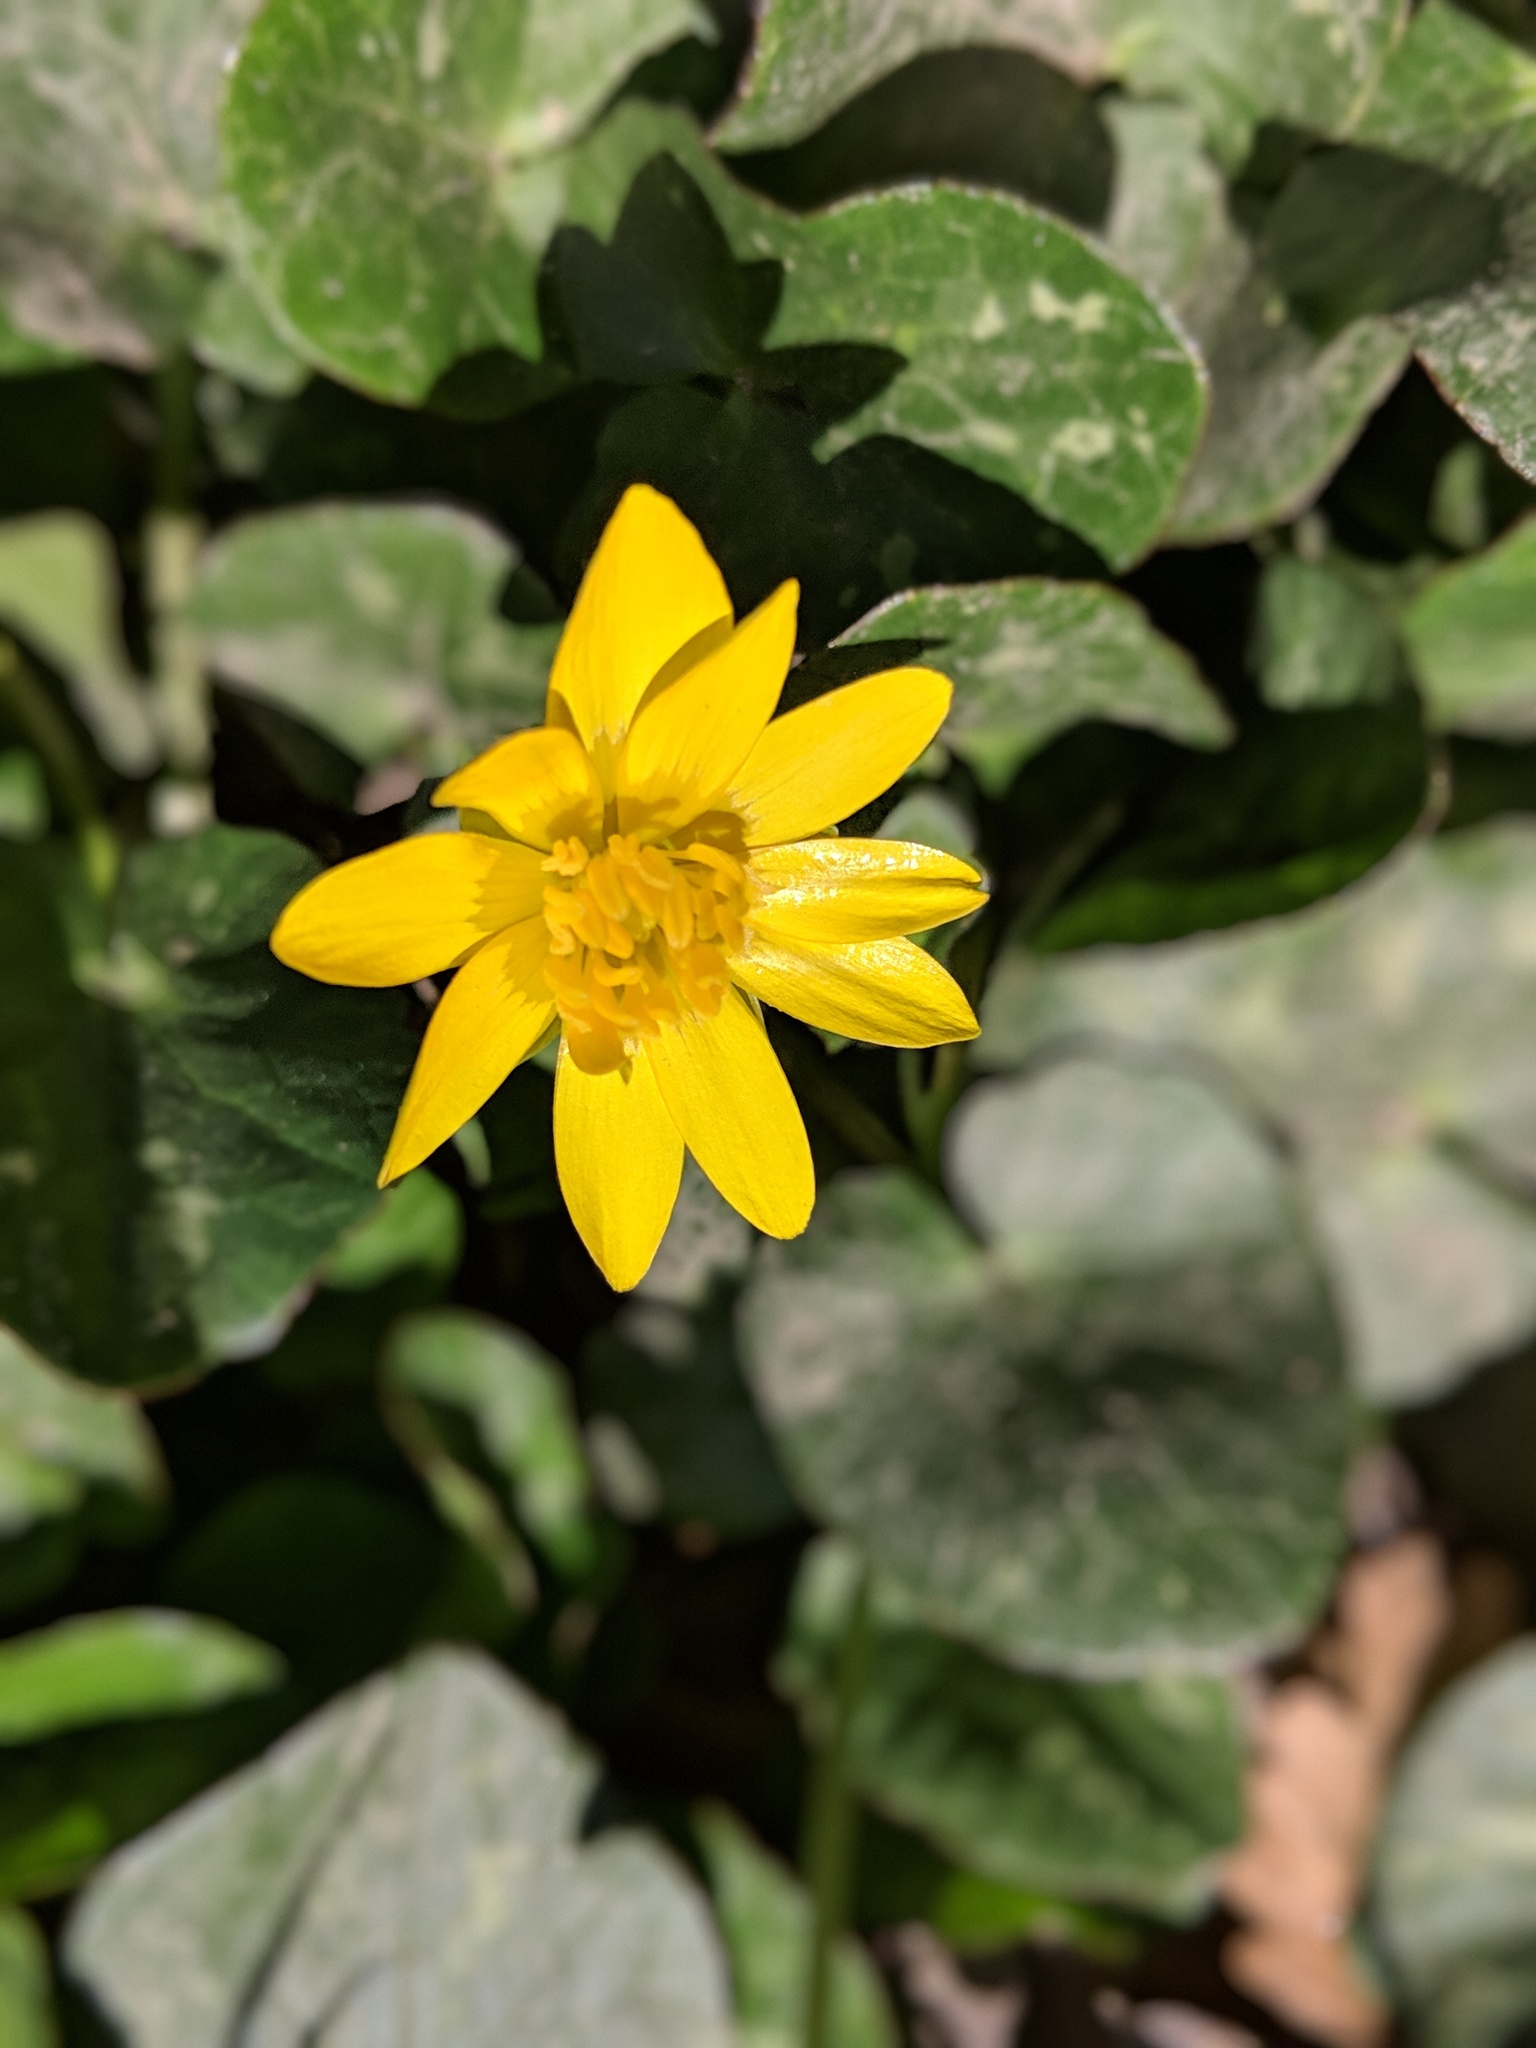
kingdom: Plantae
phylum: Tracheophyta
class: Magnoliopsida
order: Ranunculales
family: Ranunculaceae
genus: Ficaria
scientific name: Ficaria verna
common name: Lesser celandine
